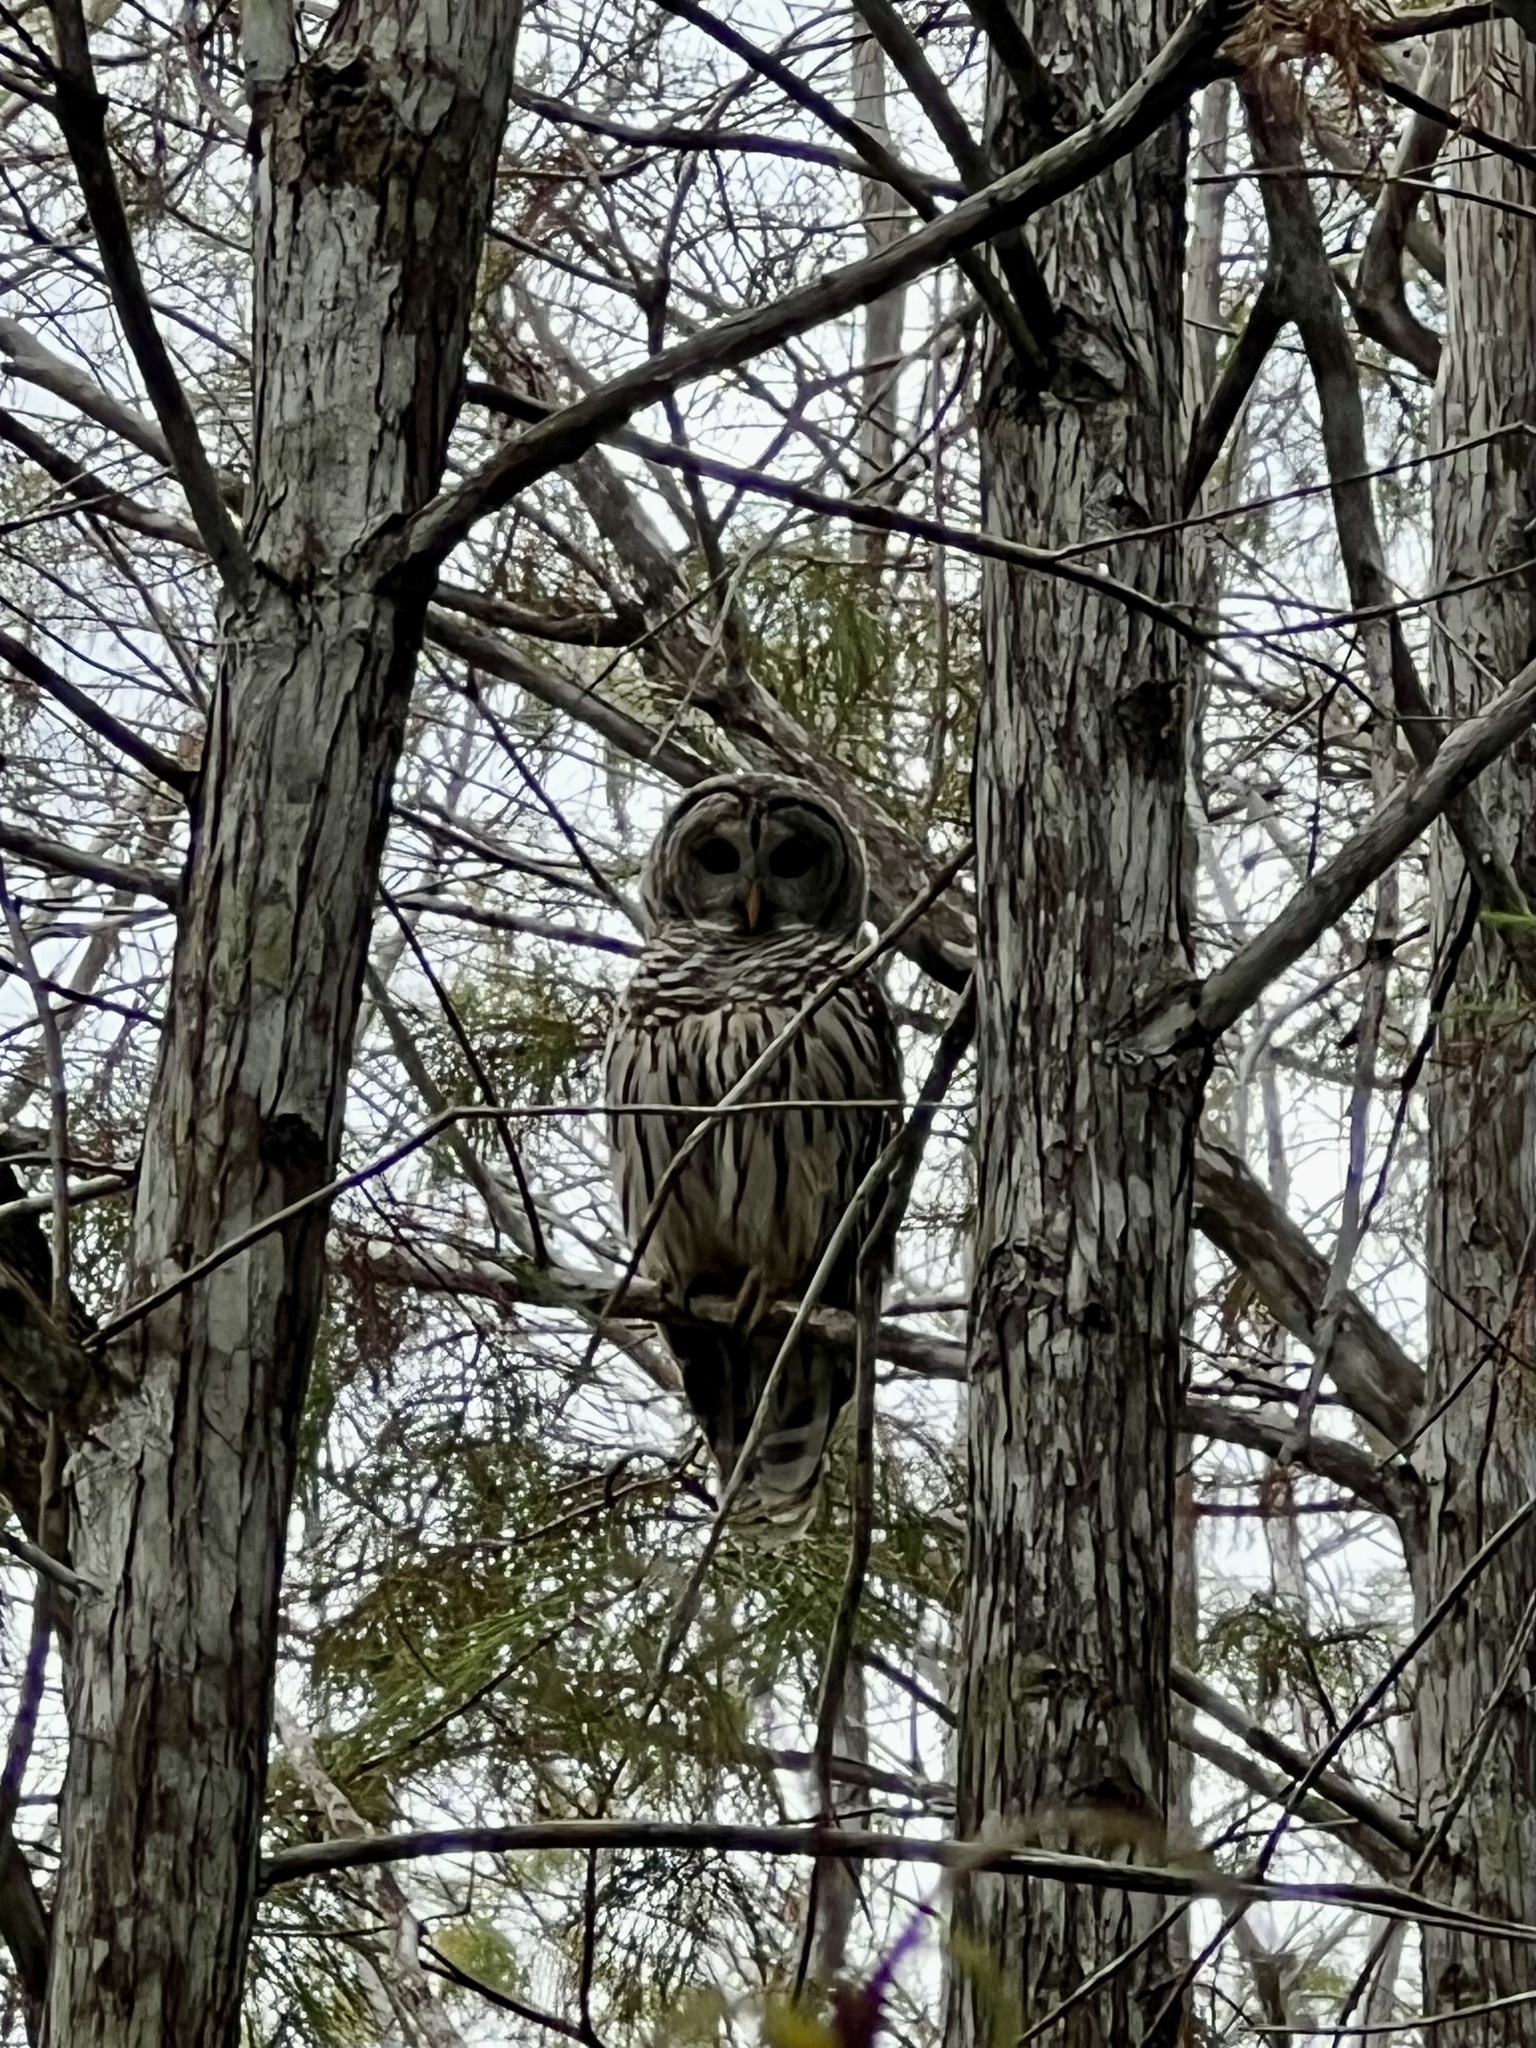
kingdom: Animalia
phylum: Chordata
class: Aves
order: Strigiformes
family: Strigidae
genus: Strix
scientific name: Strix varia
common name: Barred owl
